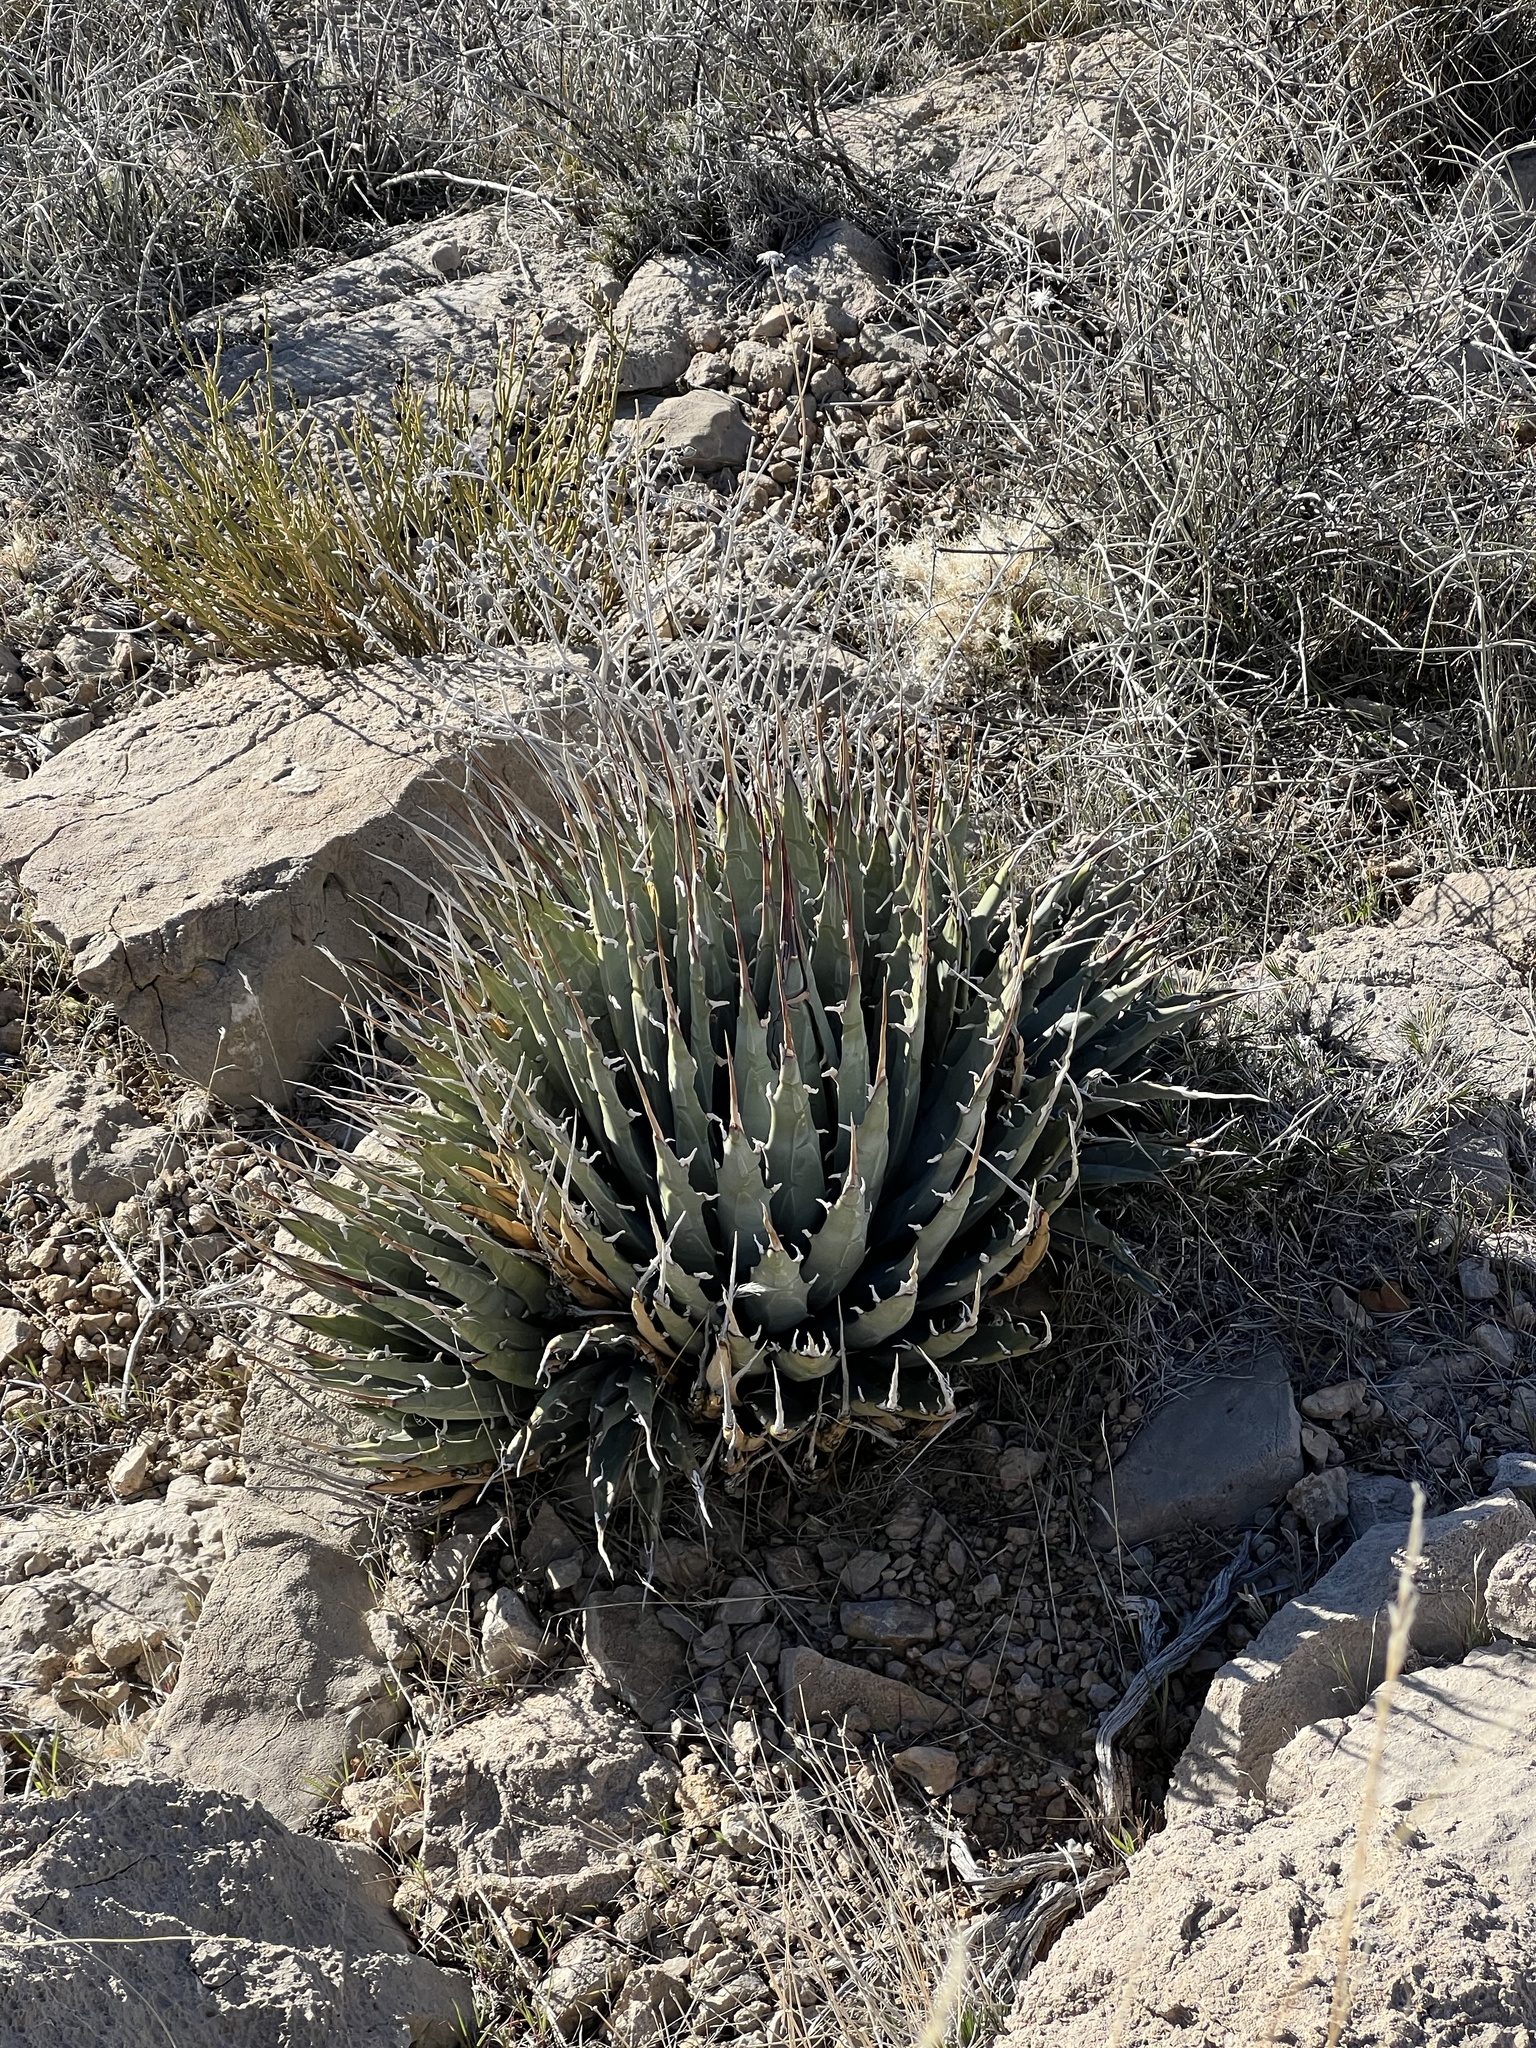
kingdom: Plantae
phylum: Tracheophyta
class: Liliopsida
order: Asparagales
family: Asparagaceae
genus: Agave
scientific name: Agave utahensis
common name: Utah agave
